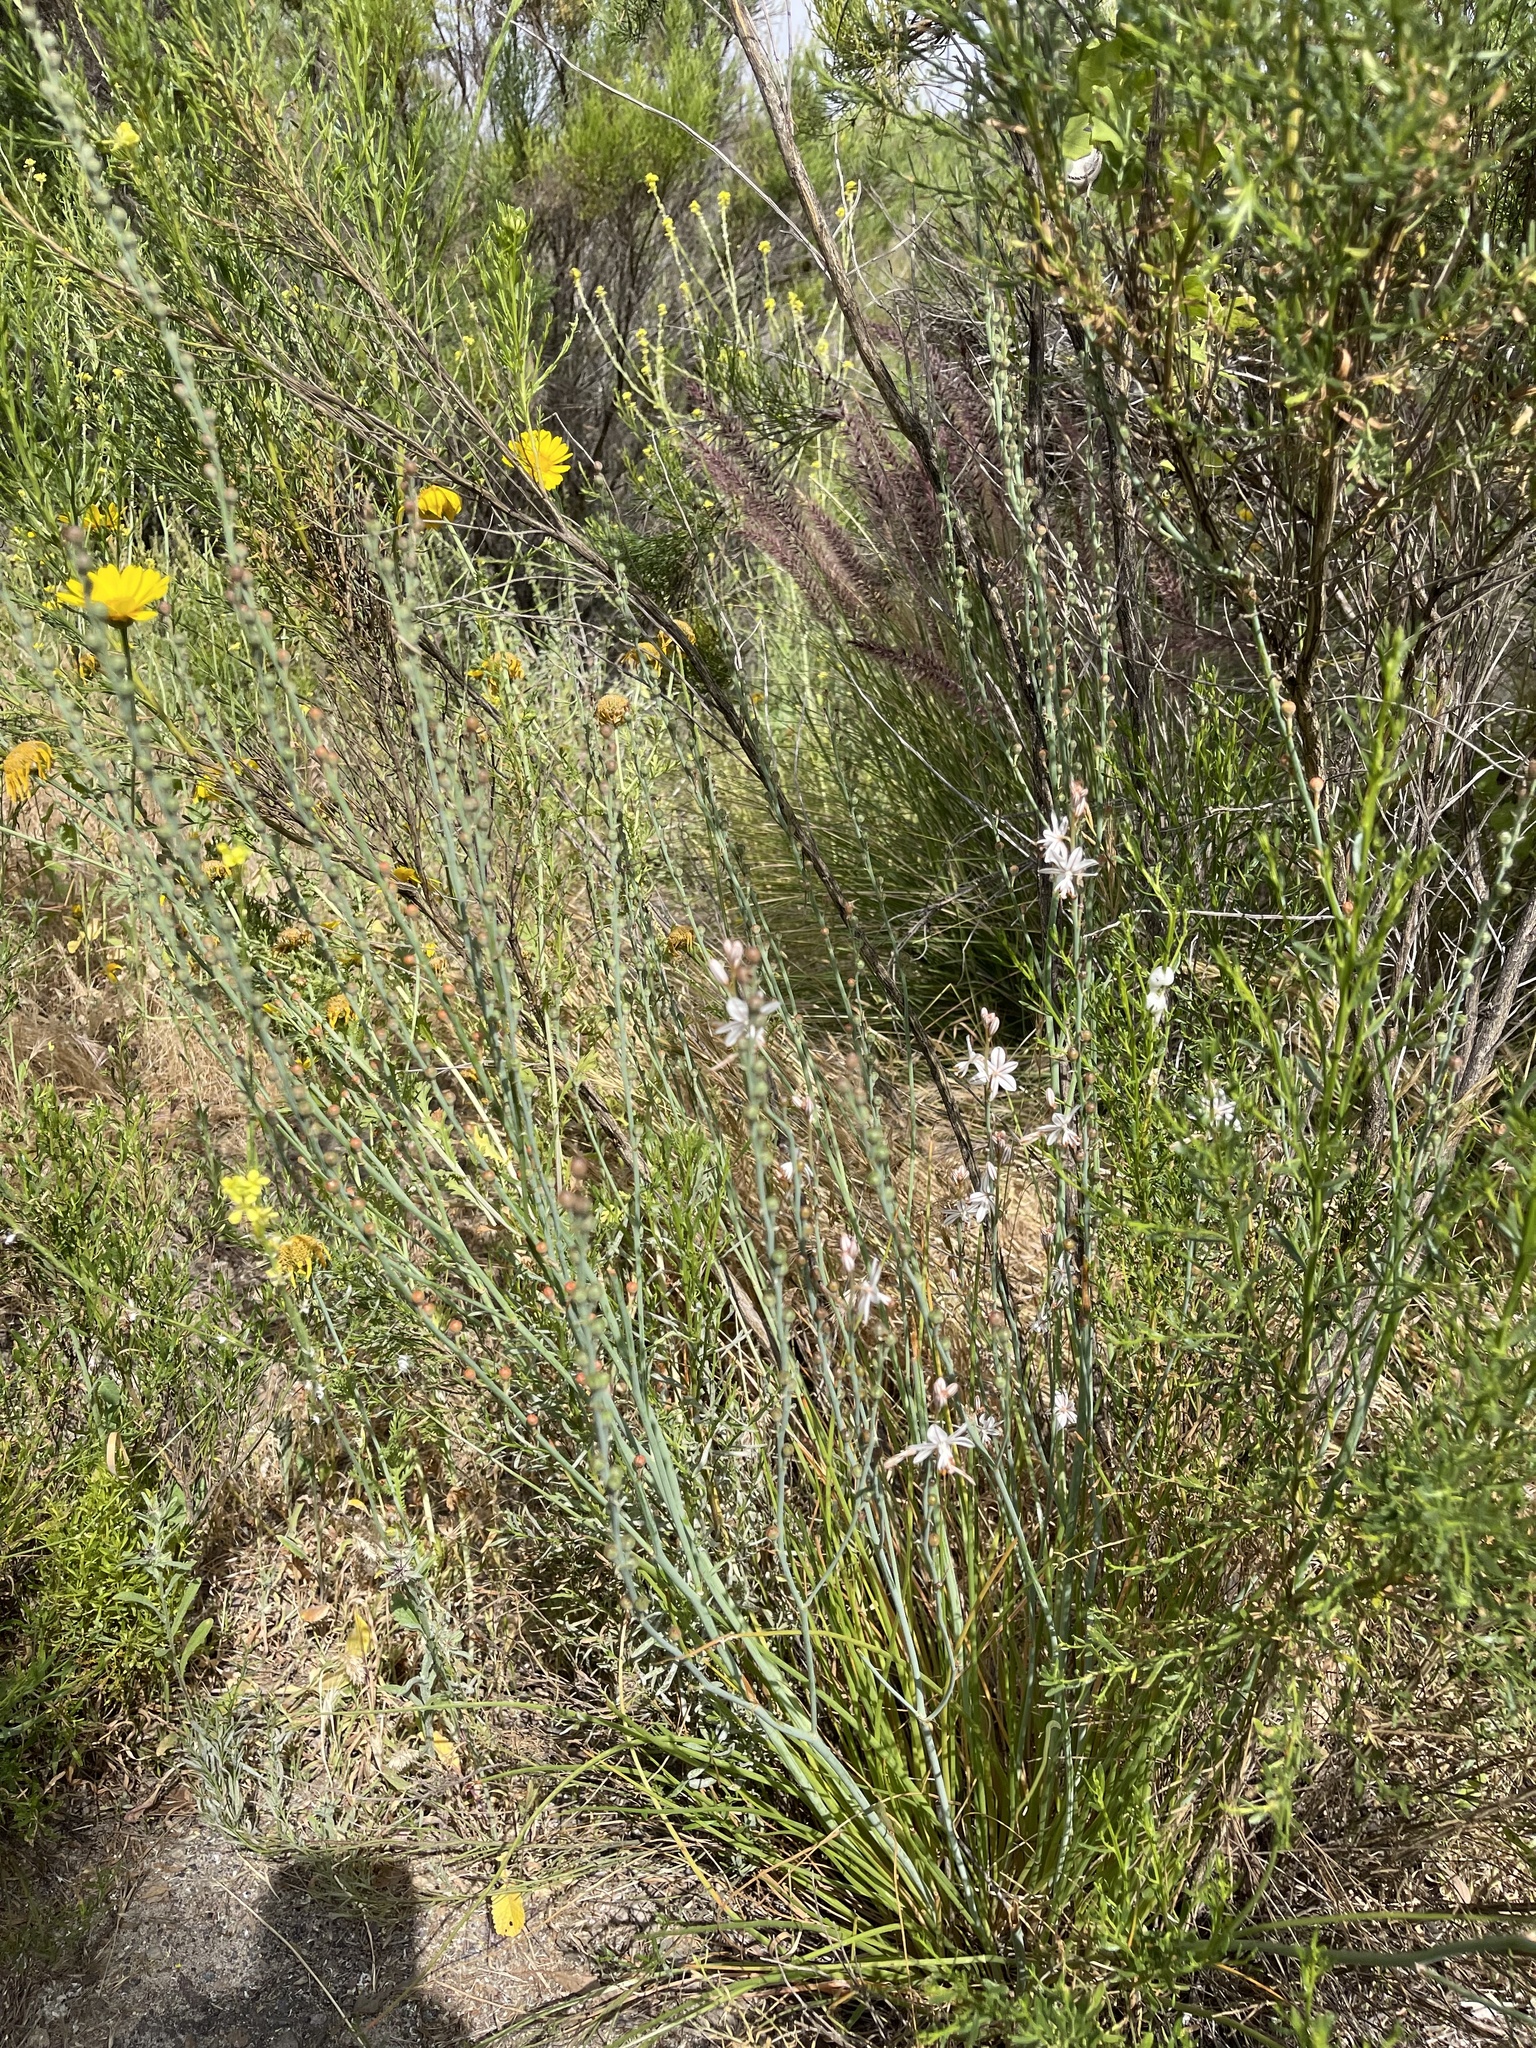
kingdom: Plantae
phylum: Tracheophyta
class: Liliopsida
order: Asparagales
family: Asphodelaceae
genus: Asphodelus
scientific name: Asphodelus fistulosus
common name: Onionweed
